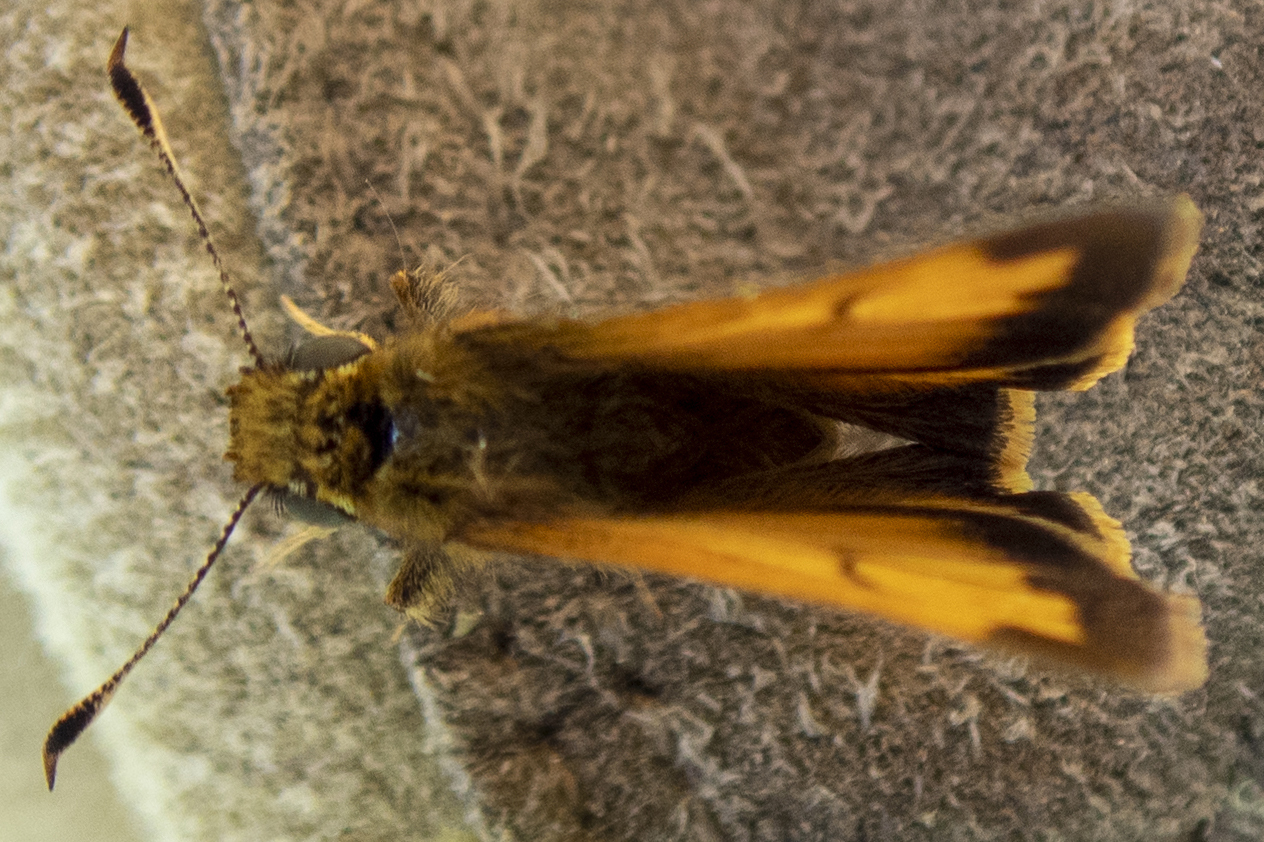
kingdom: Animalia
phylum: Arthropoda
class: Insecta
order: Lepidoptera
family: Hesperiidae
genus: Lon
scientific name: Lon hobomok
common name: Hobomok skipper
